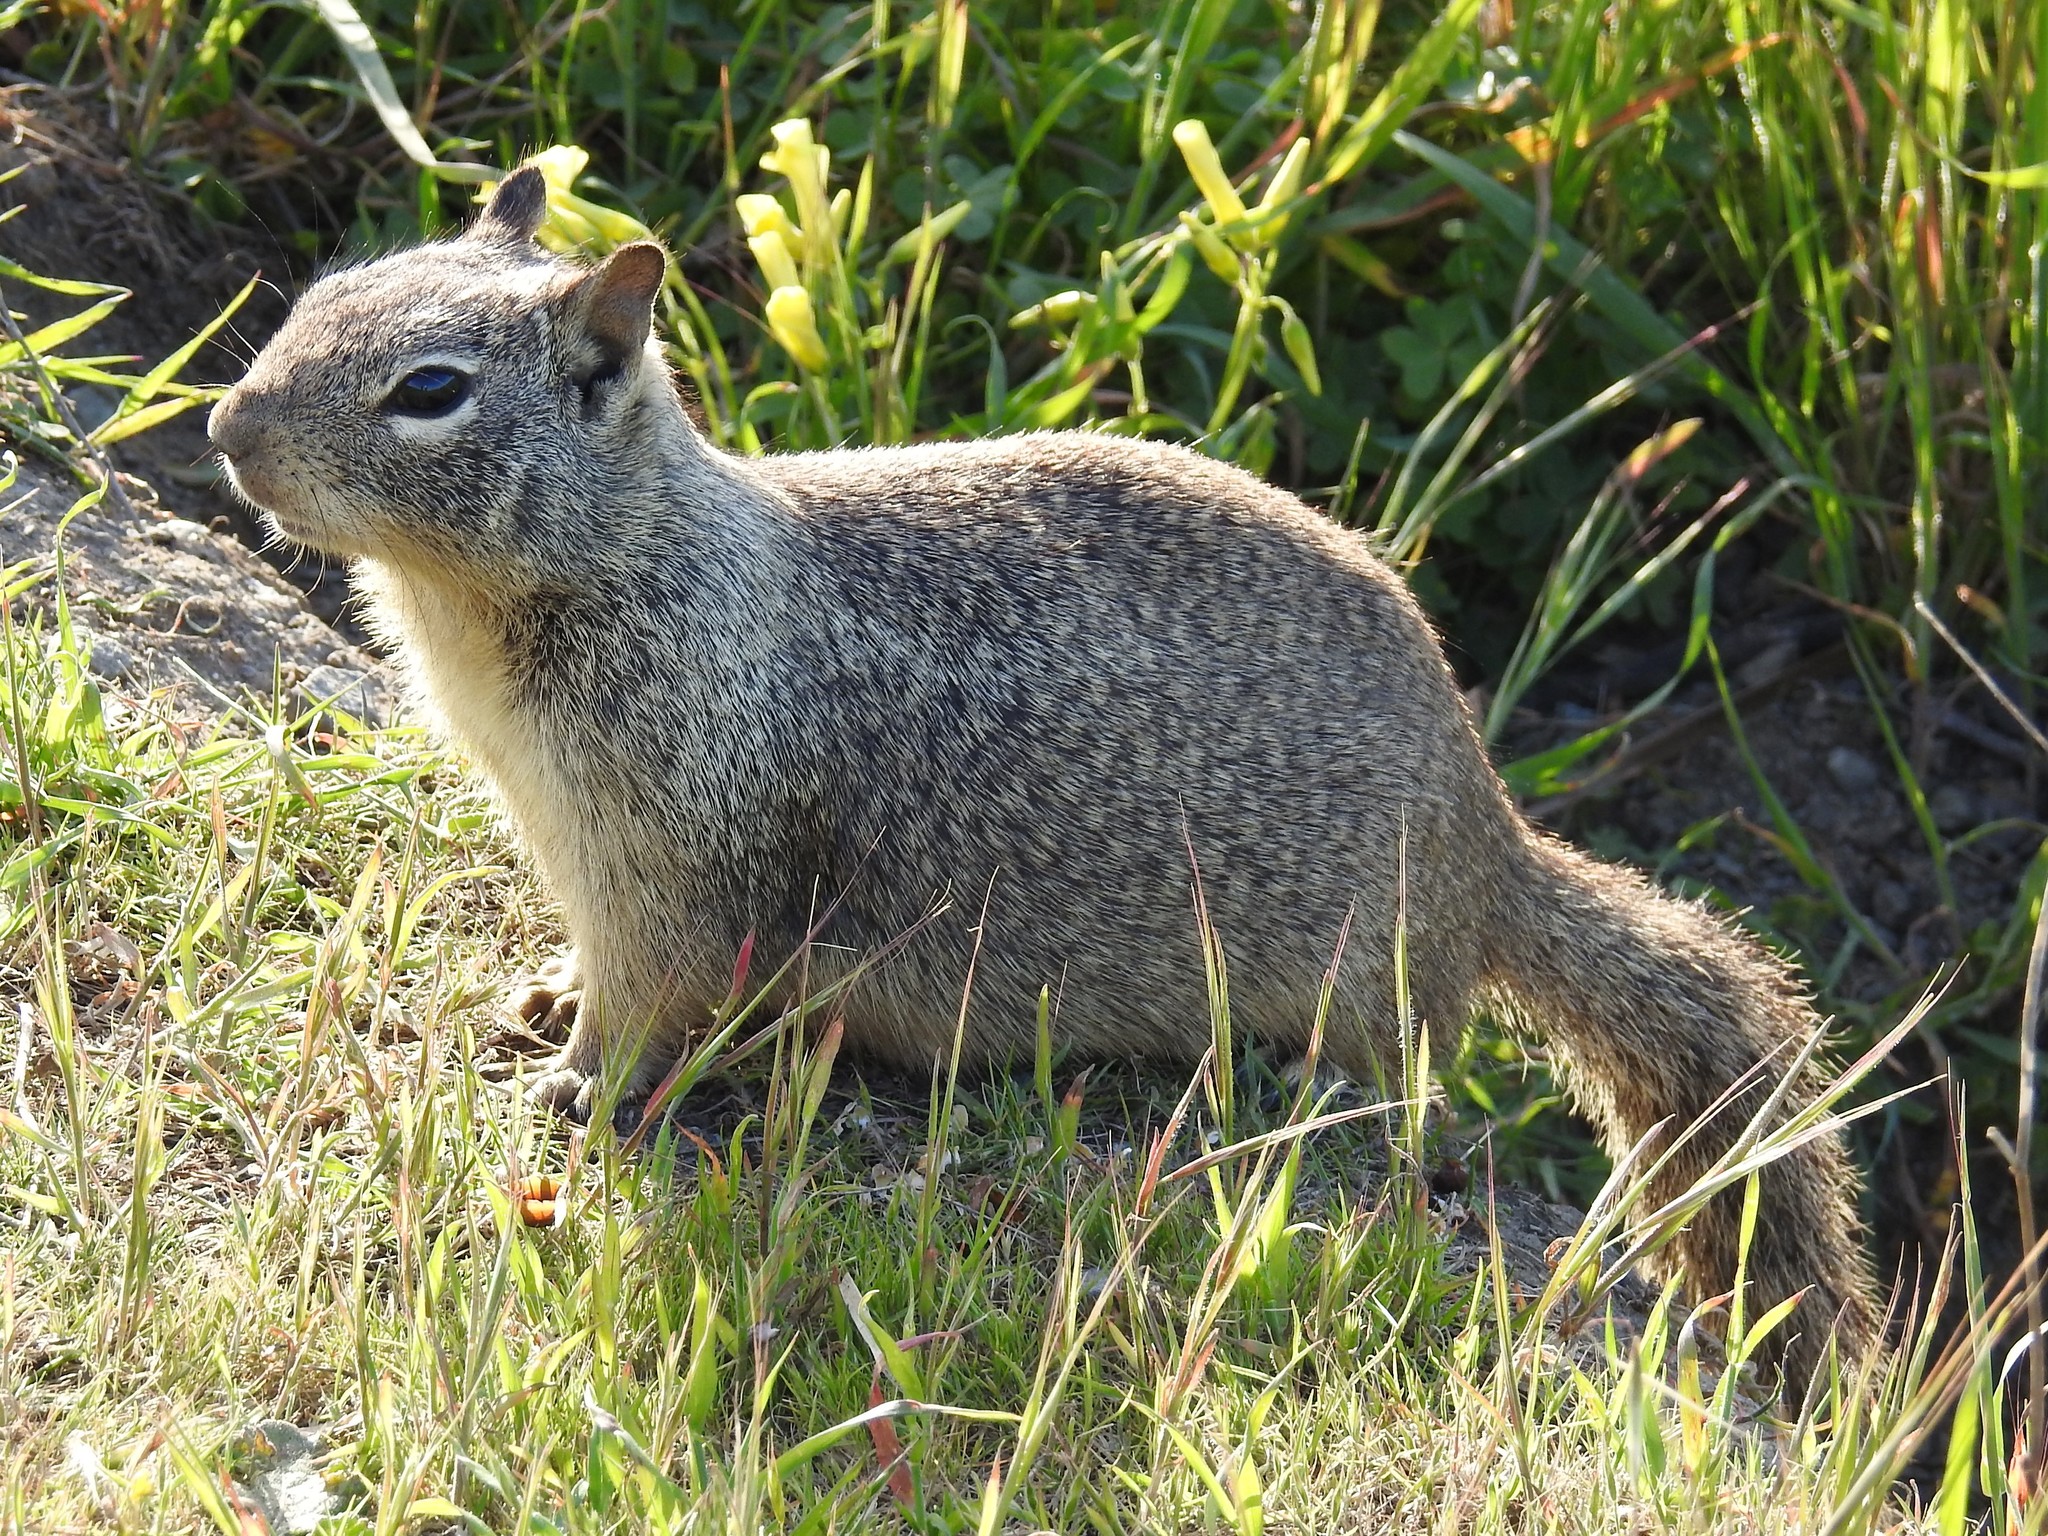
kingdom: Animalia
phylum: Chordata
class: Mammalia
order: Rodentia
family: Sciuridae
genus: Otospermophilus
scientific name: Otospermophilus beecheyi
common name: California ground squirrel
